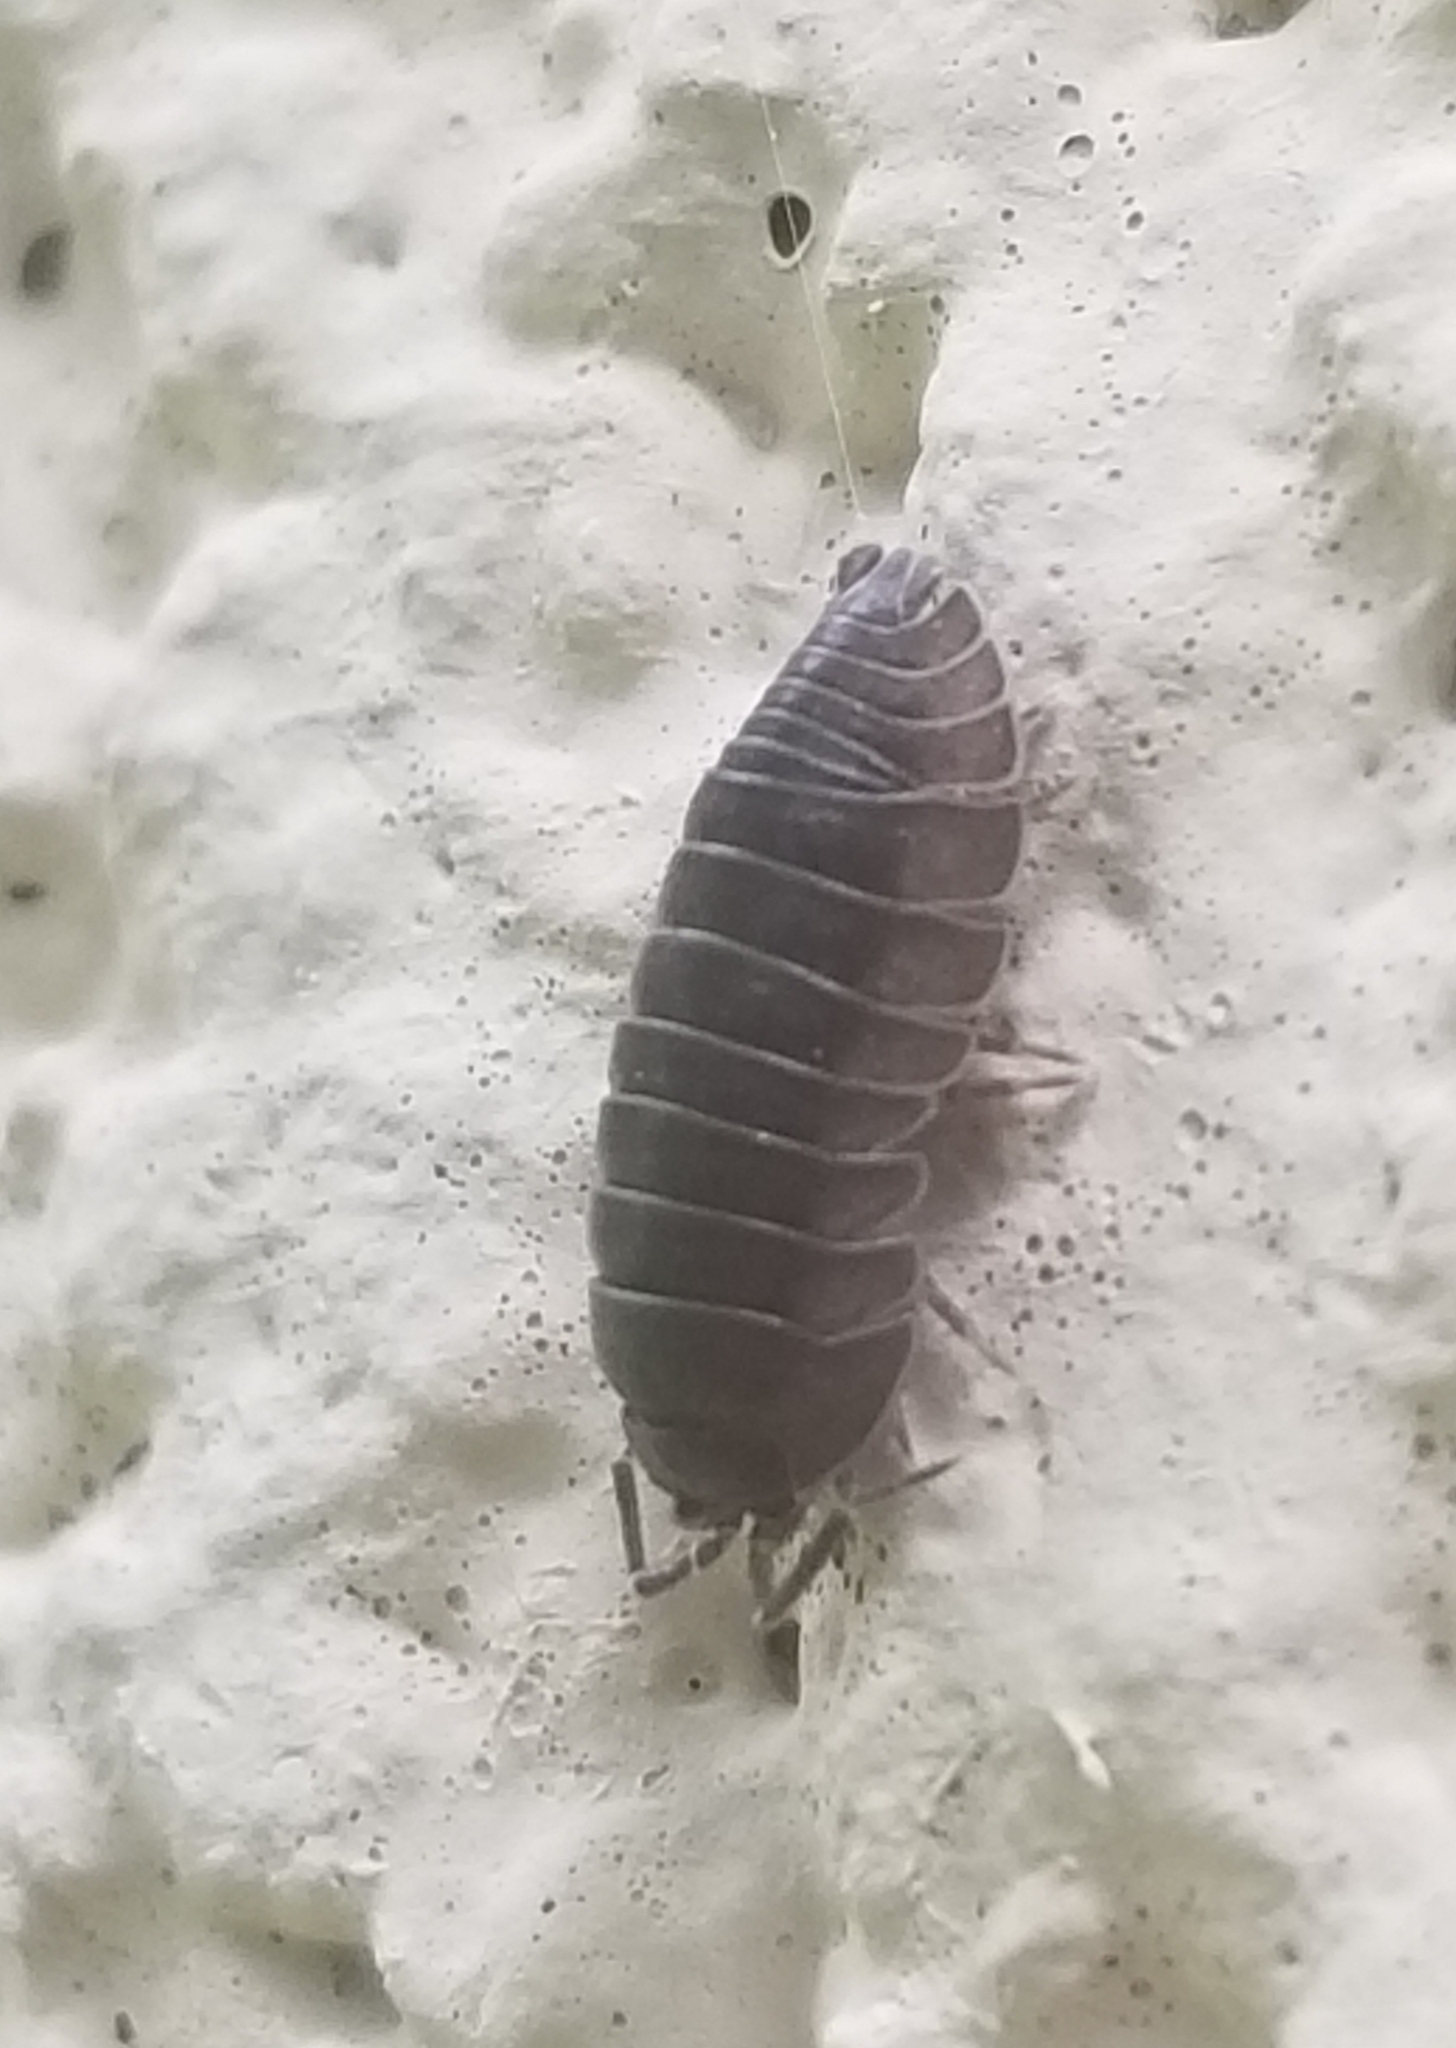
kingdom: Animalia
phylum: Arthropoda
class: Malacostraca
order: Isopoda
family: Armadillidiidae
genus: Armadillidium
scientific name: Armadillidium nasatum
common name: Isopod
